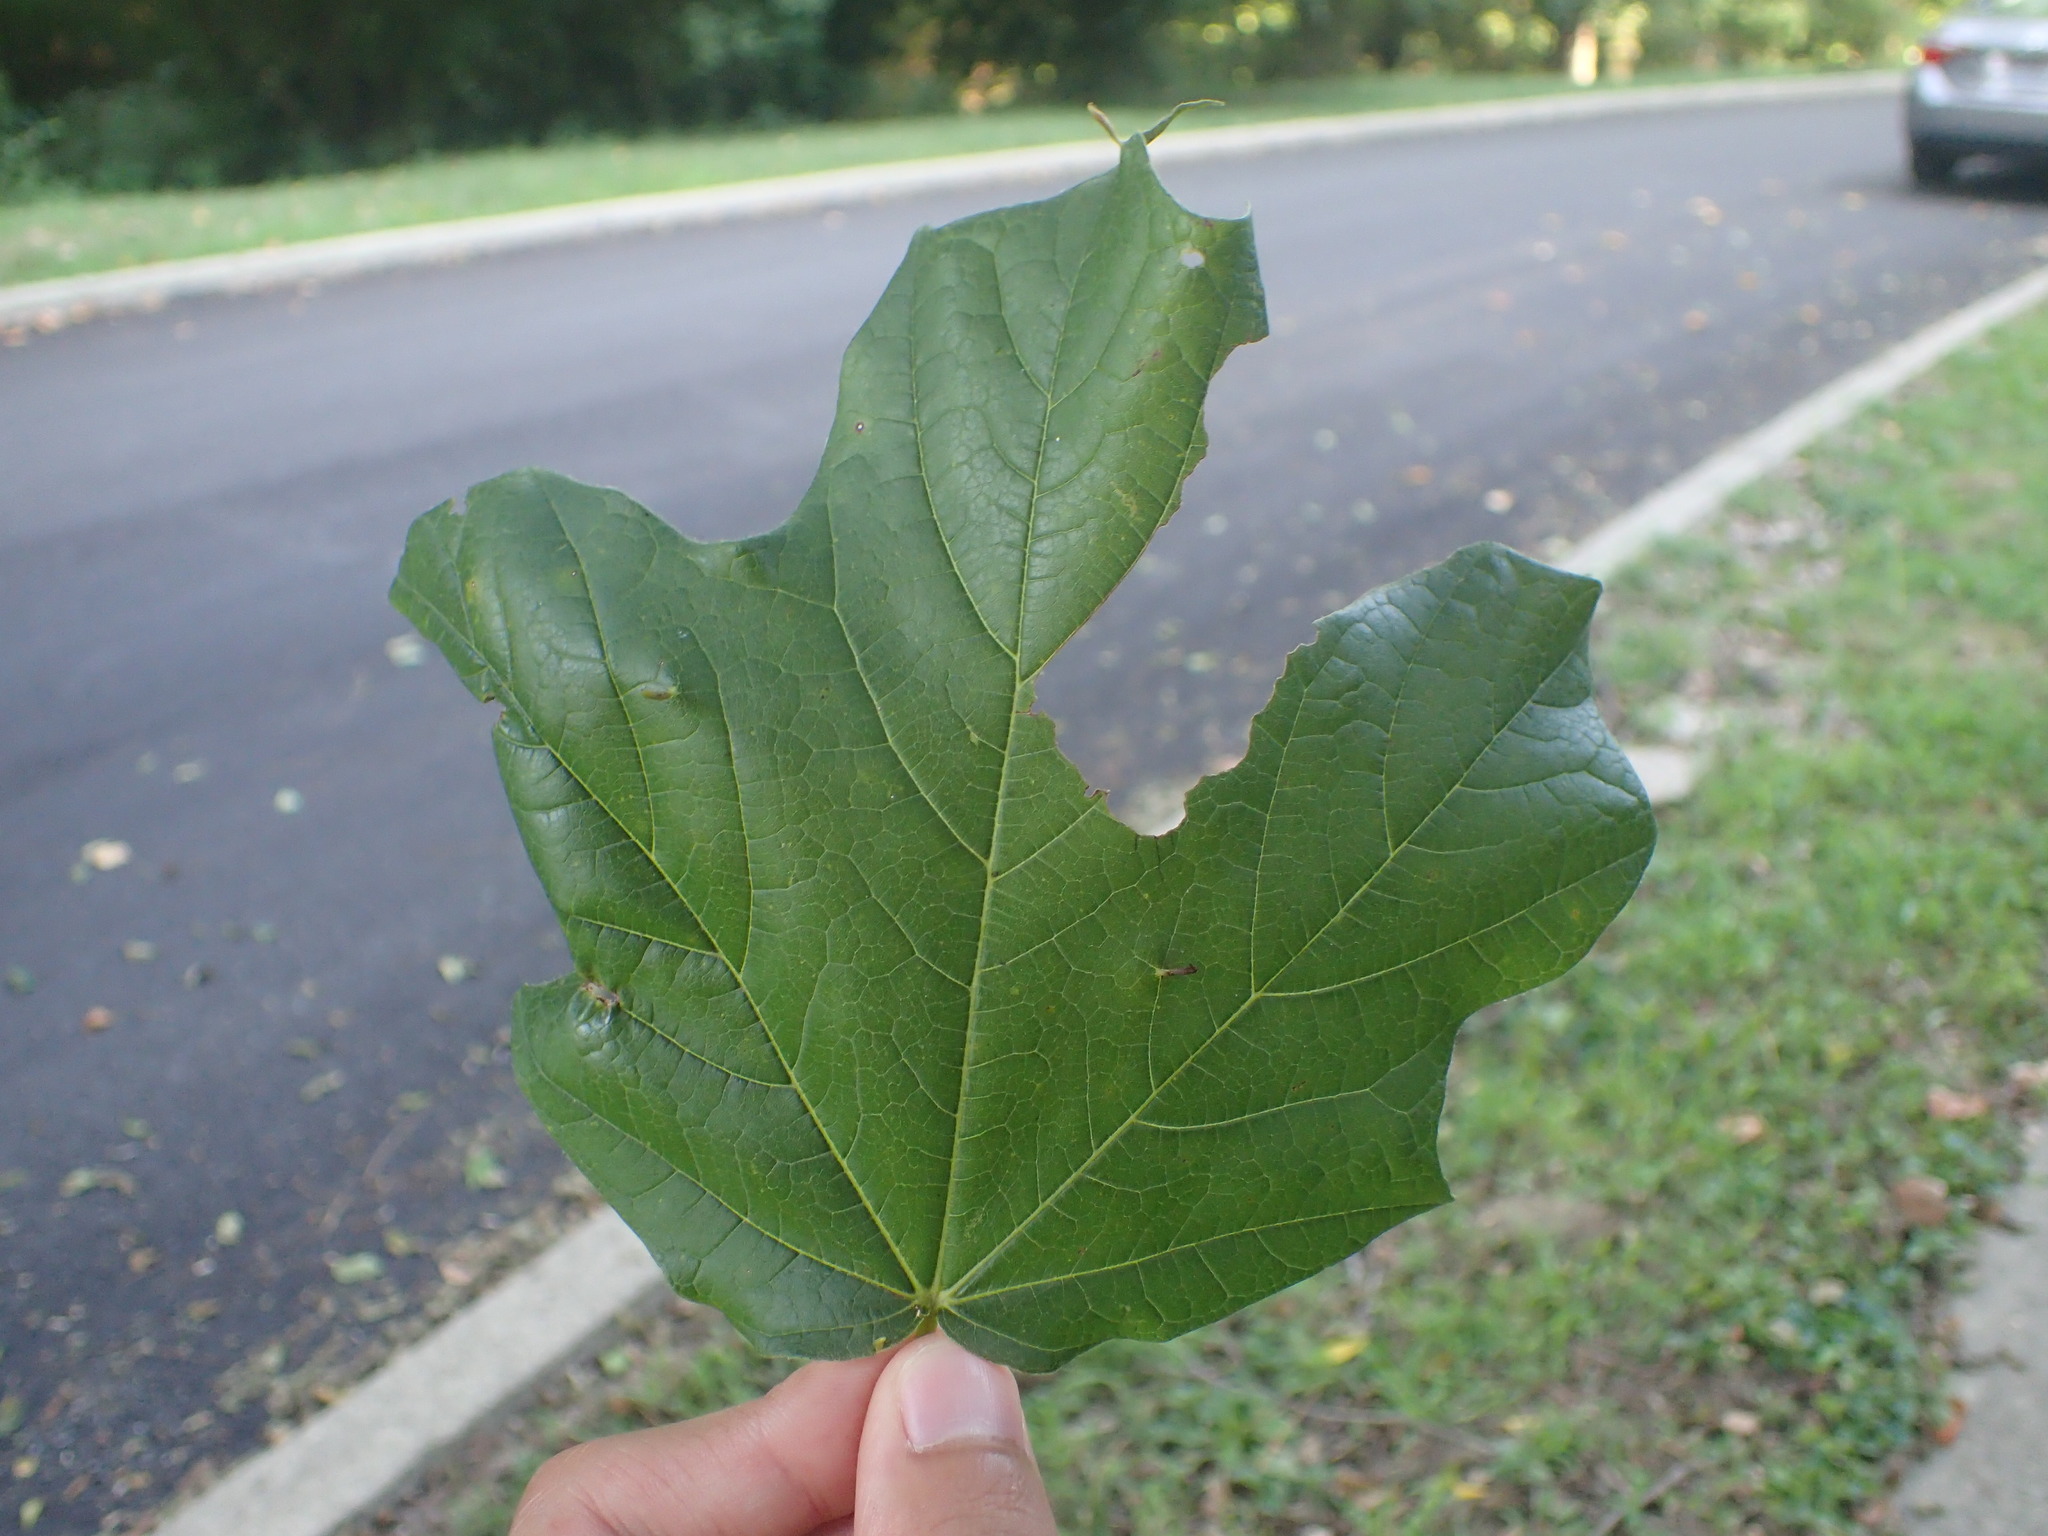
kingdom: Plantae
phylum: Tracheophyta
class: Magnoliopsida
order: Sapindales
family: Sapindaceae
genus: Acer
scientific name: Acer nigrum
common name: Black maple
